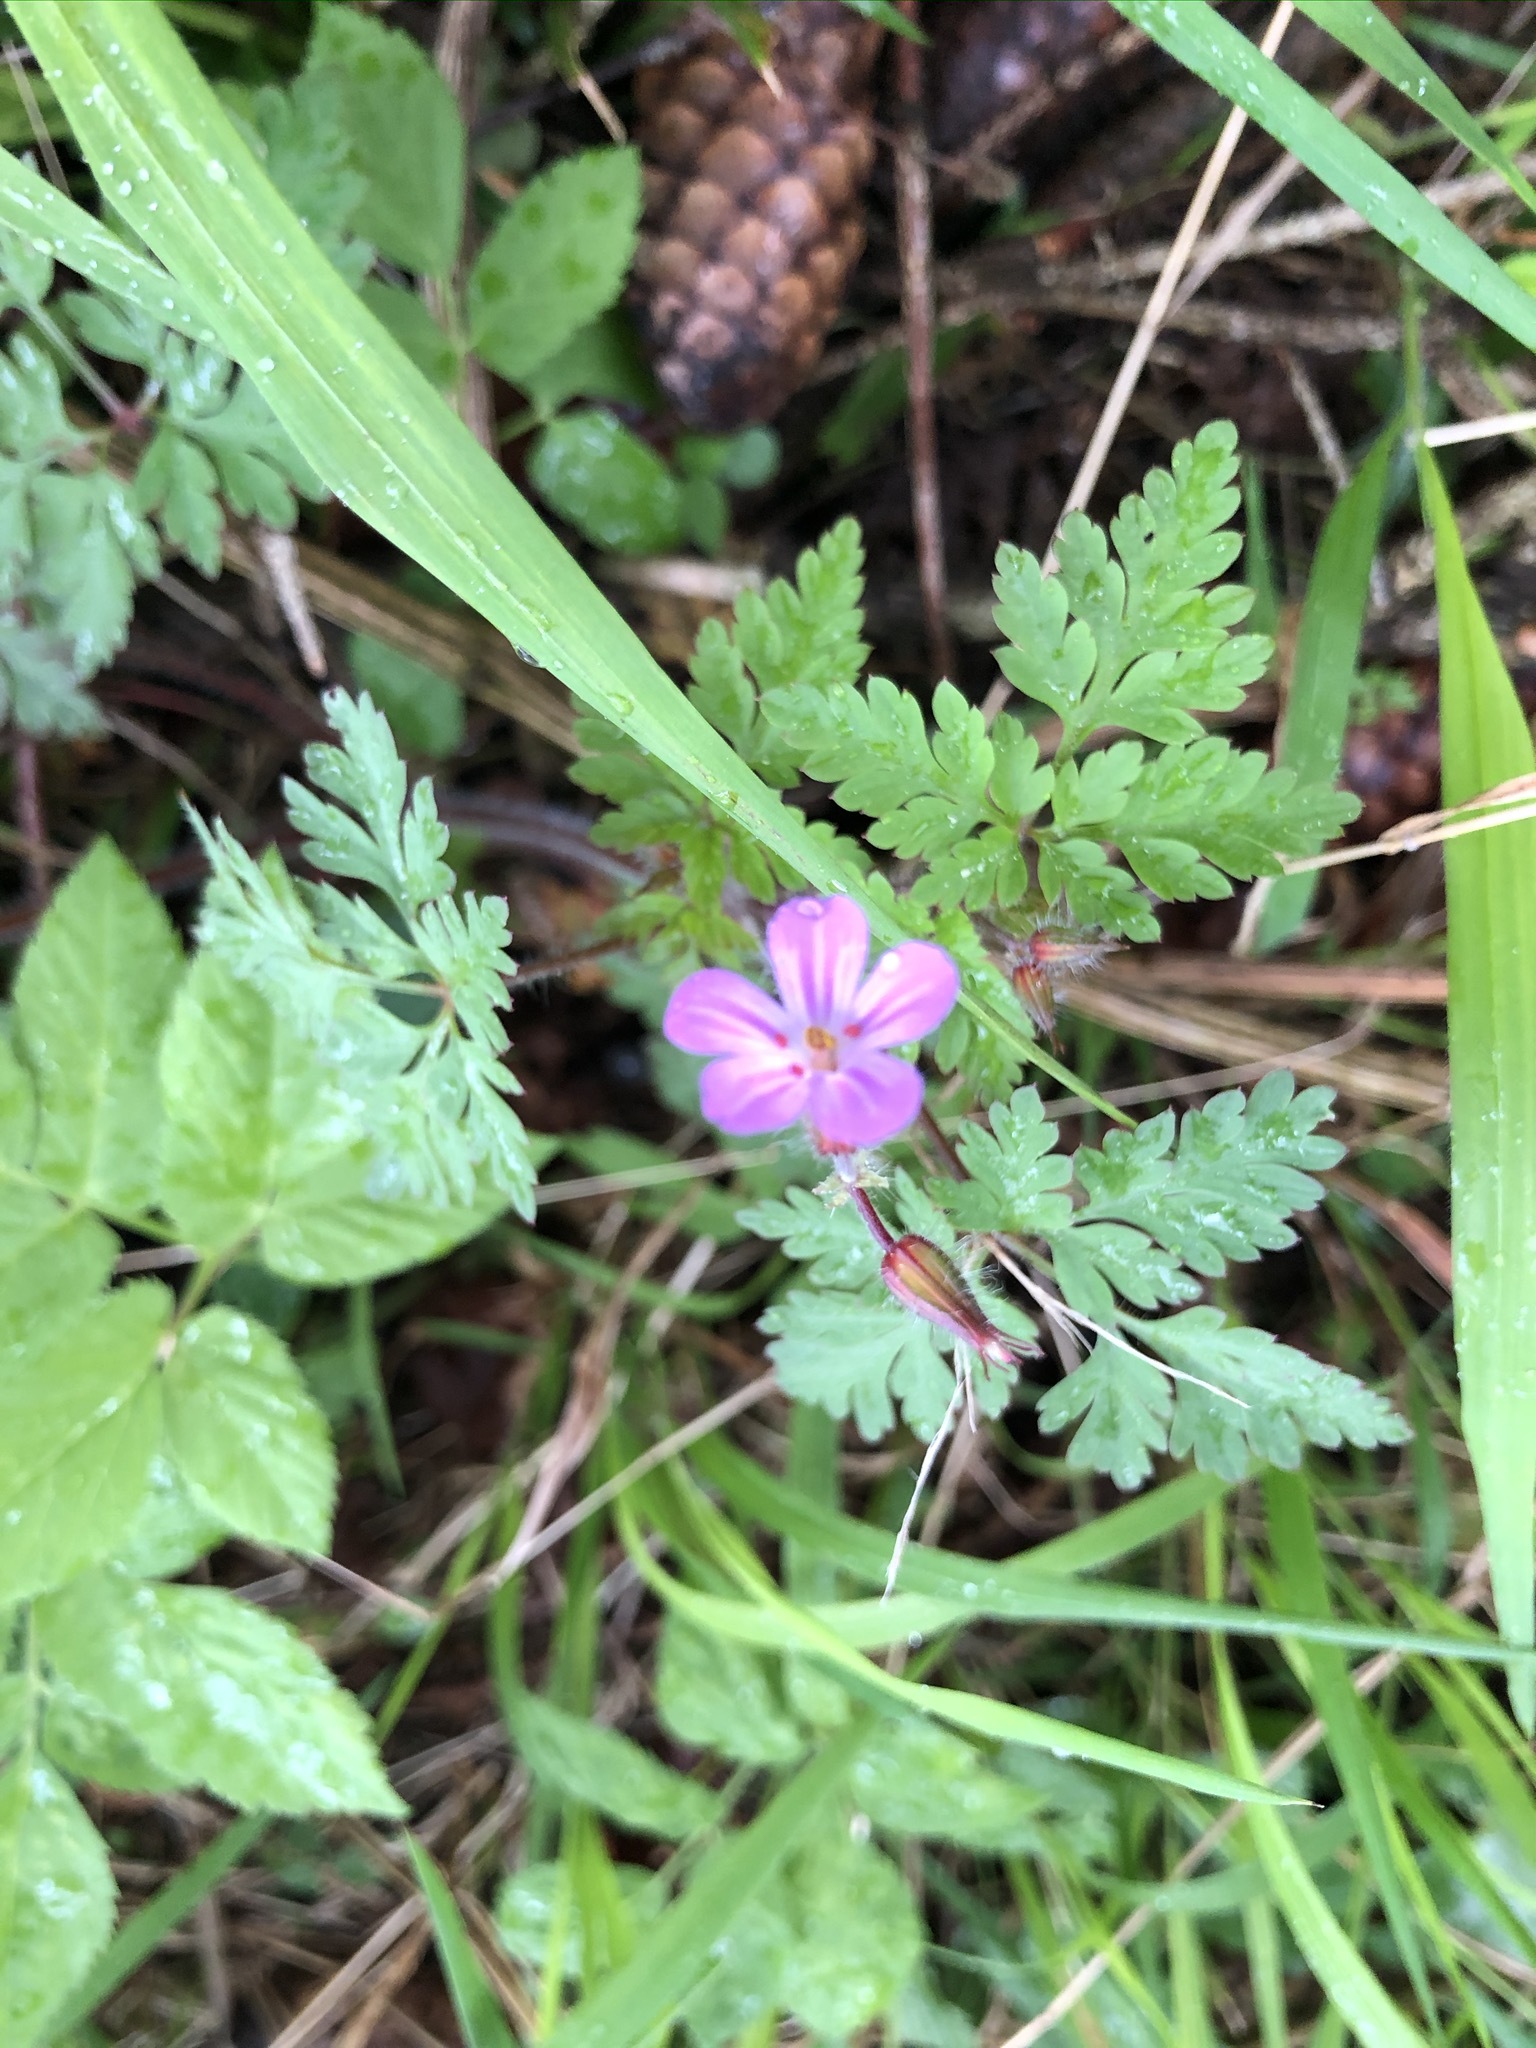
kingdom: Plantae
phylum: Tracheophyta
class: Magnoliopsida
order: Geraniales
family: Geraniaceae
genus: Geranium
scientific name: Geranium robertianum
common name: Herb-robert
